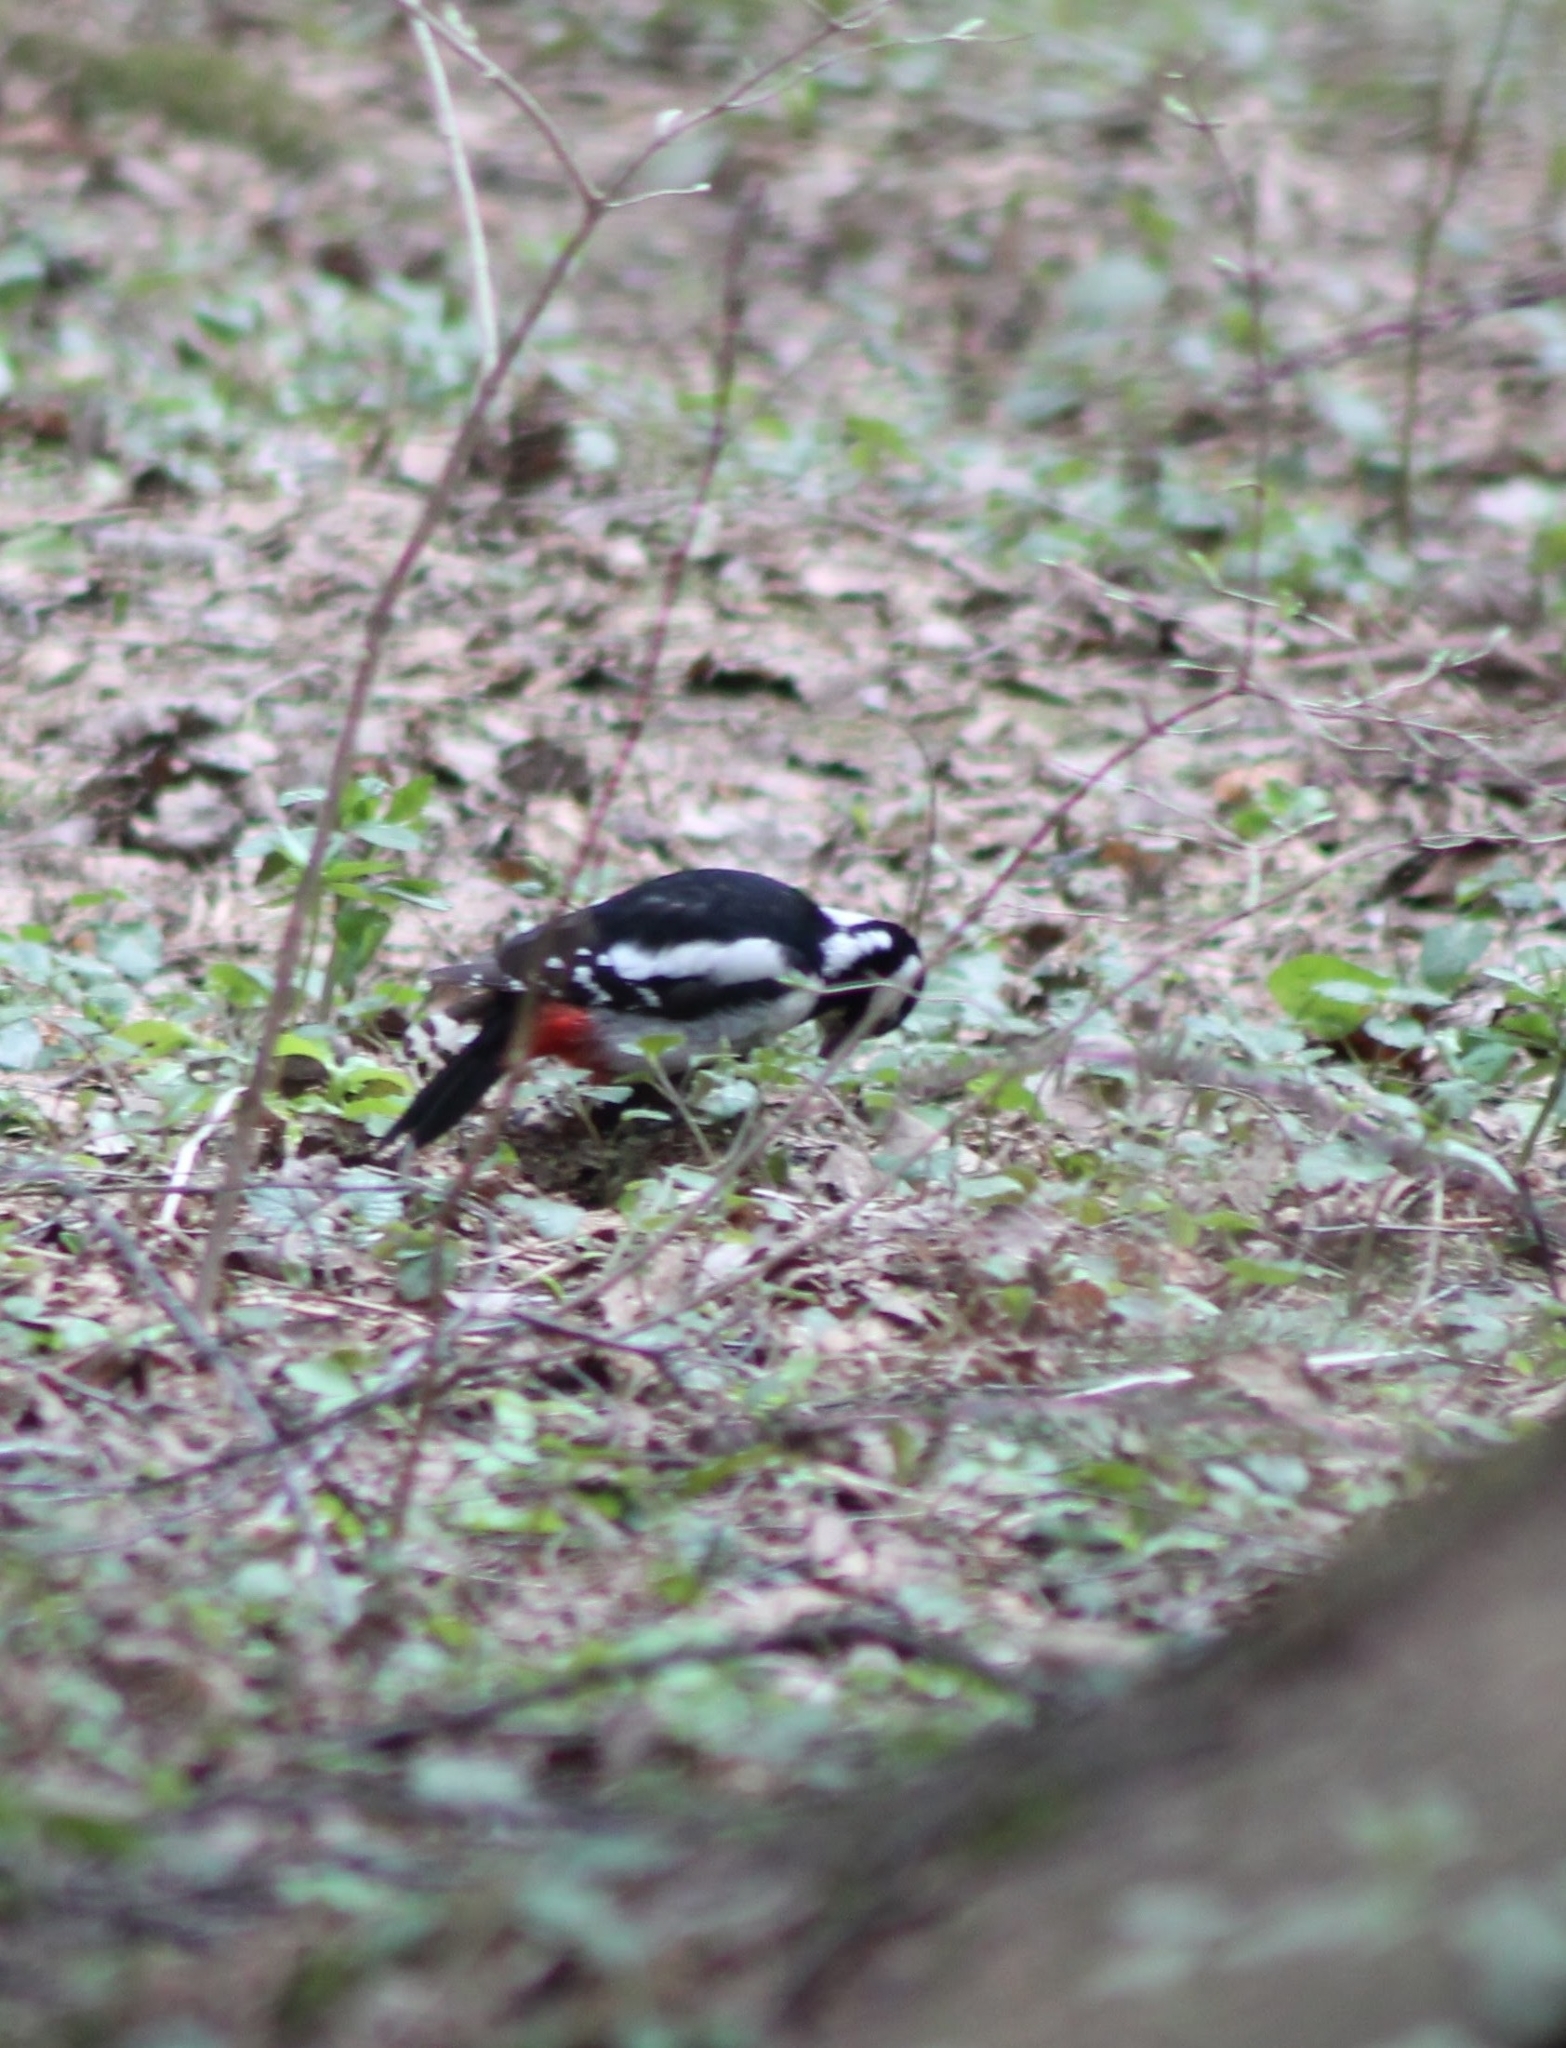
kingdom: Animalia
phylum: Chordata
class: Aves
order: Piciformes
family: Picidae
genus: Dendrocopos
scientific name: Dendrocopos major
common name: Great spotted woodpecker
